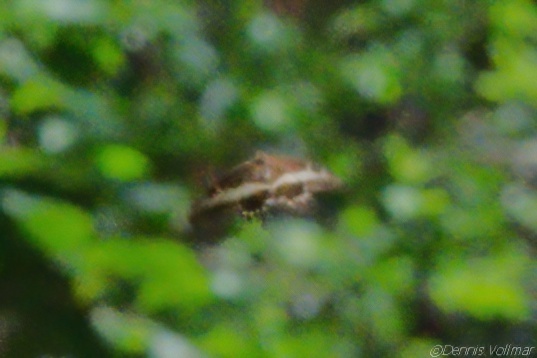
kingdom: Animalia
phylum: Arthropoda
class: Insecta
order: Lepidoptera
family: Papilionidae
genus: Papilio
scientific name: Papilio andraemon
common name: Bahaman swallowtail
